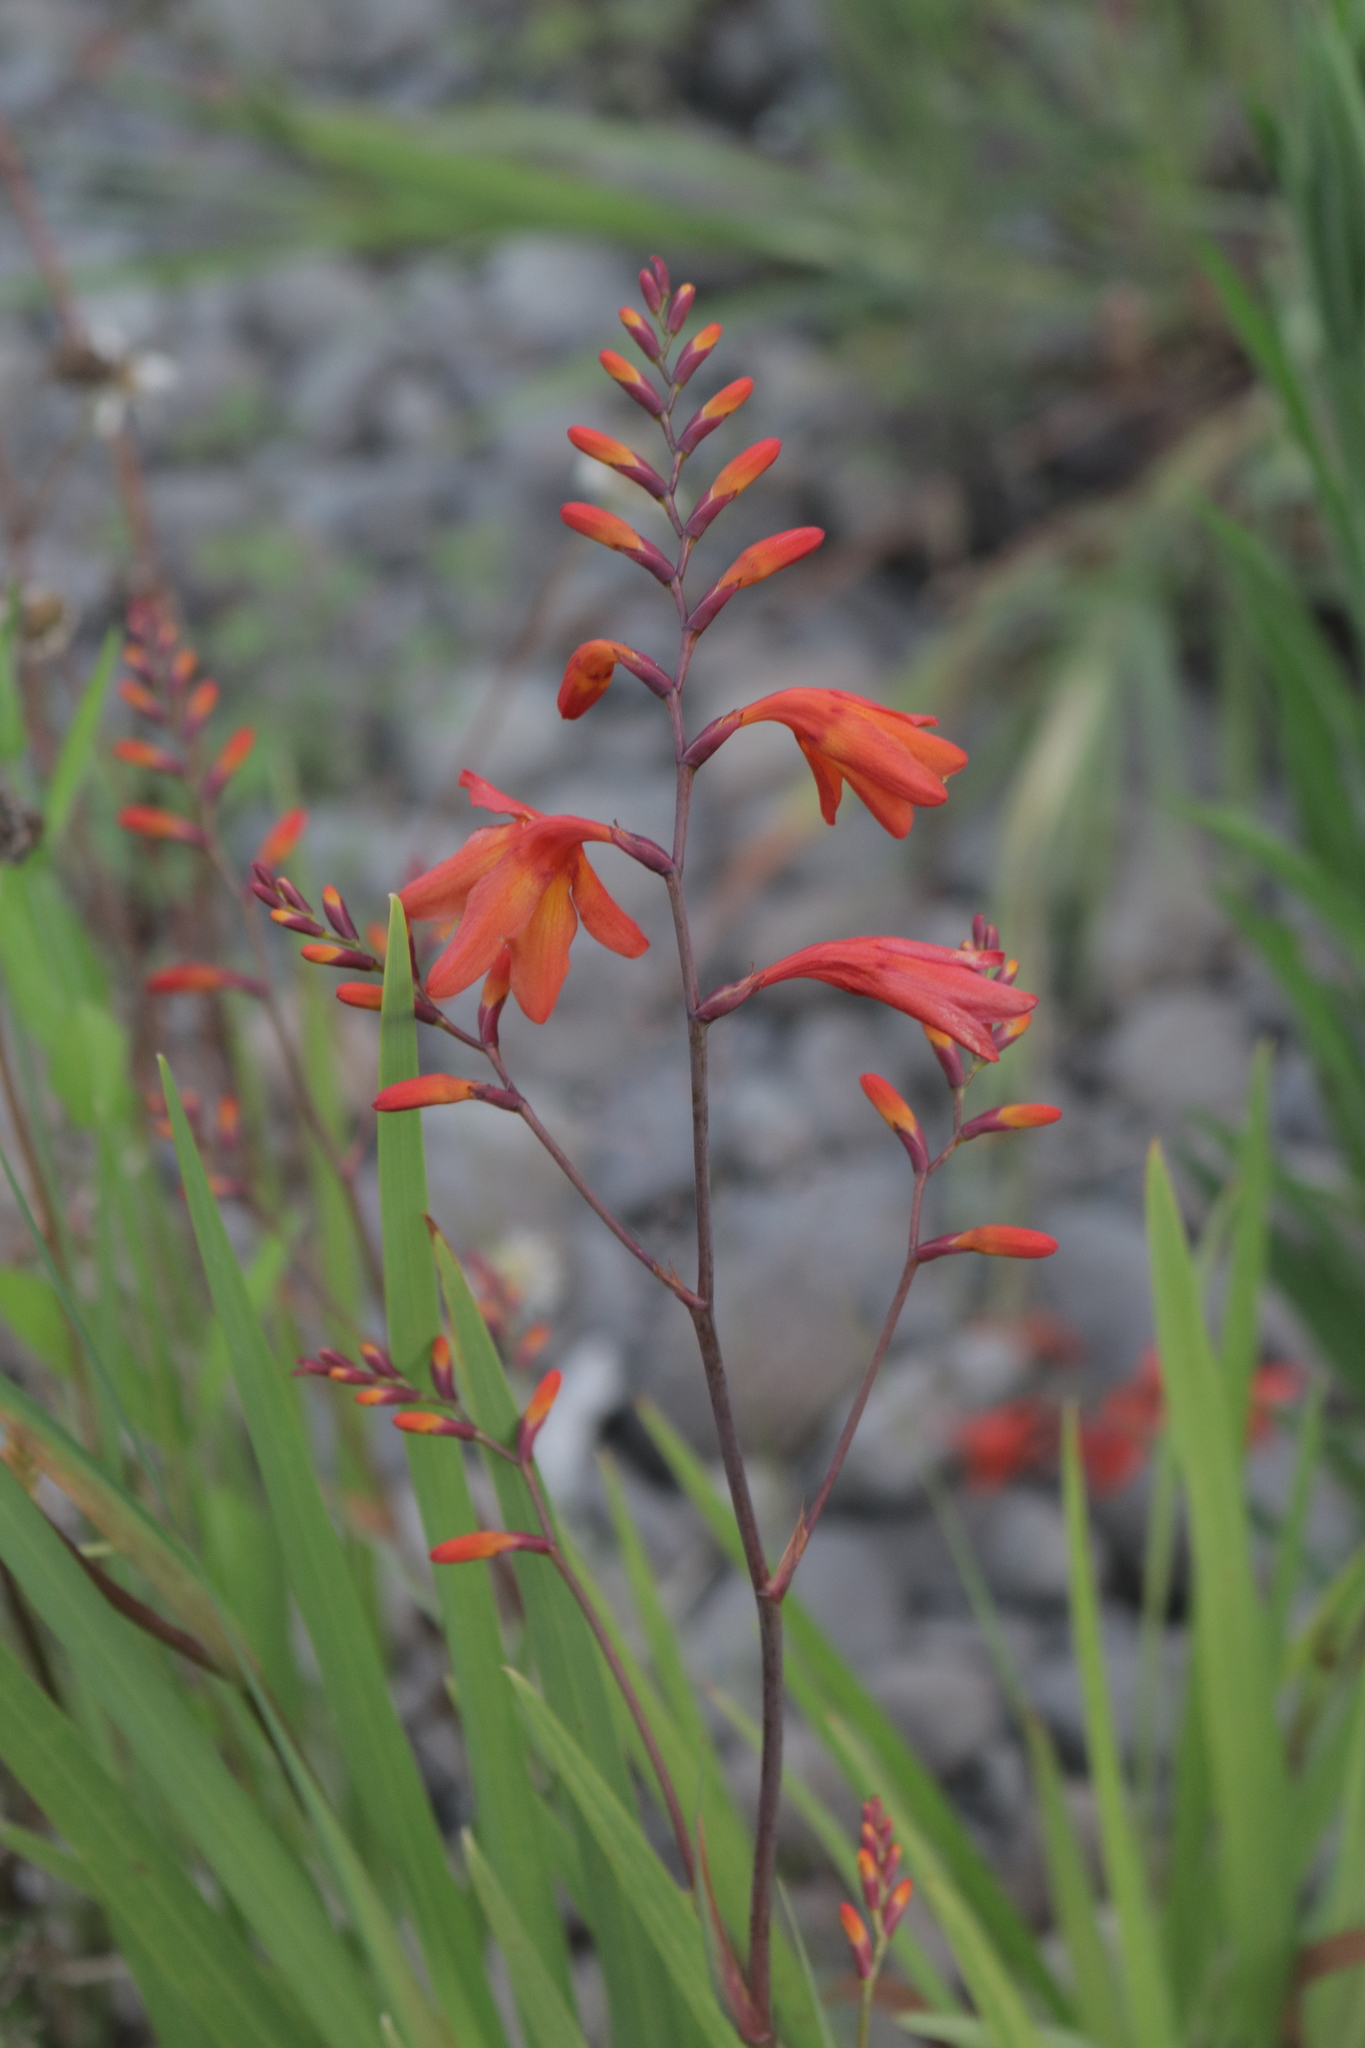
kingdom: Plantae
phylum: Tracheophyta
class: Liliopsida
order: Asparagales
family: Iridaceae
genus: Crocosmia
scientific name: Crocosmia crocosmiiflora
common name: Montbretia
